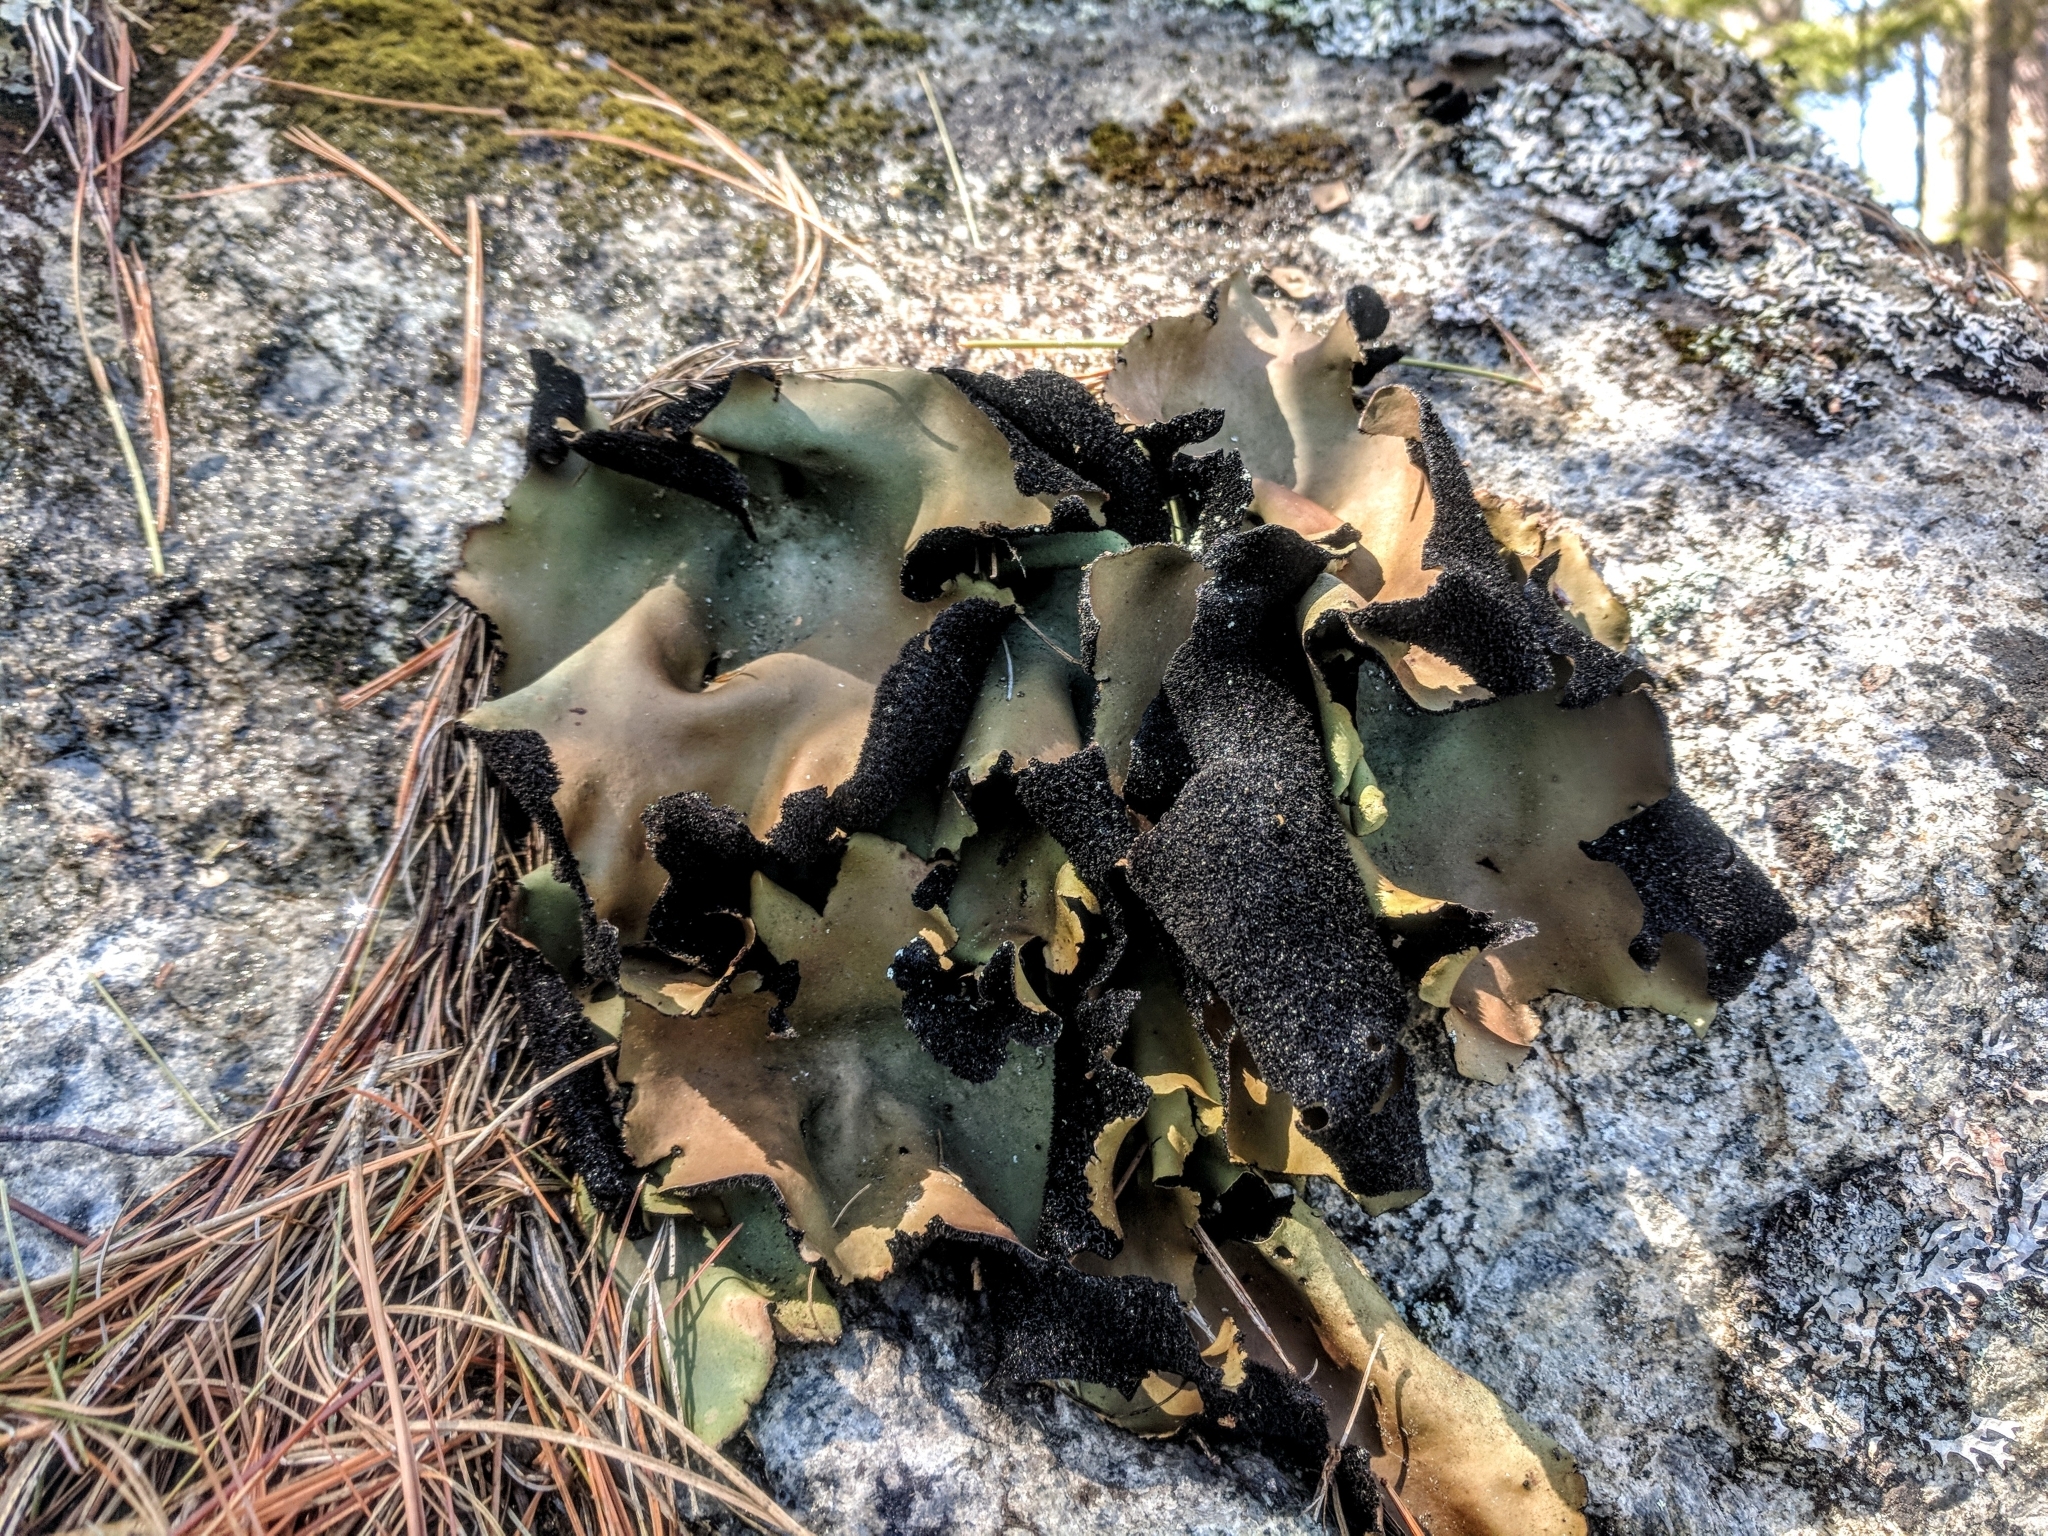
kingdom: Fungi
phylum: Ascomycota
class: Lecanoromycetes
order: Umbilicariales
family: Umbilicariaceae
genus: Umbilicaria
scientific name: Umbilicaria mammulata
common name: Smooth rock tripe
